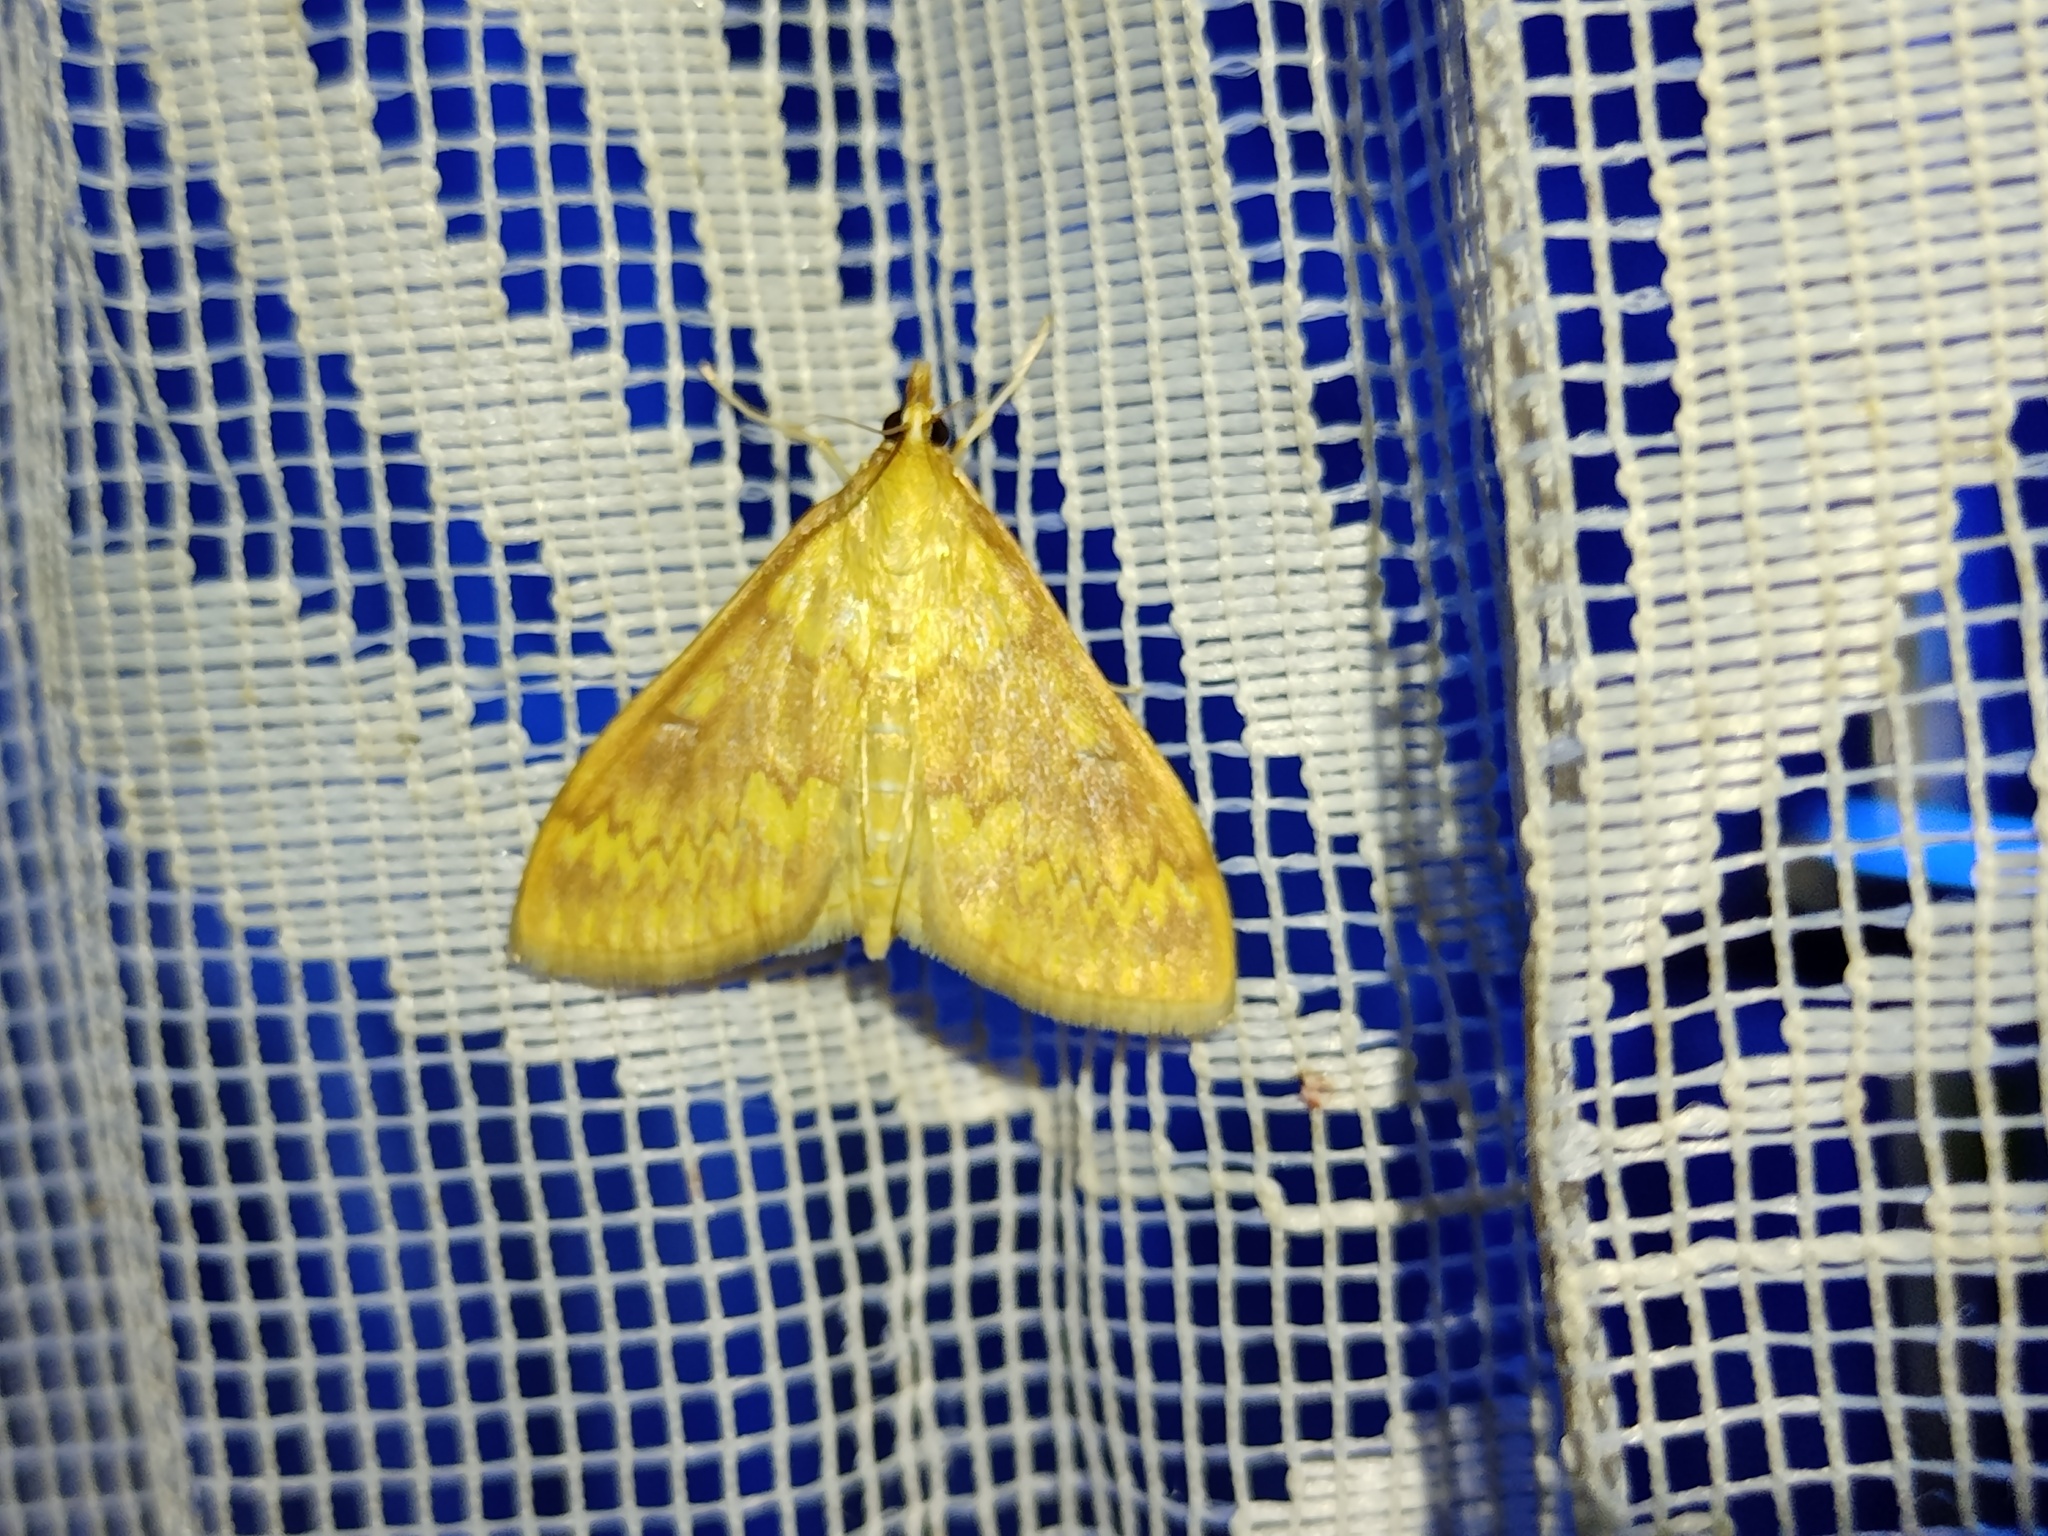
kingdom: Animalia
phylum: Arthropoda
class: Insecta
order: Lepidoptera
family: Crambidae
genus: Ostrinia
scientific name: Ostrinia nubilalis
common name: European corn borer
